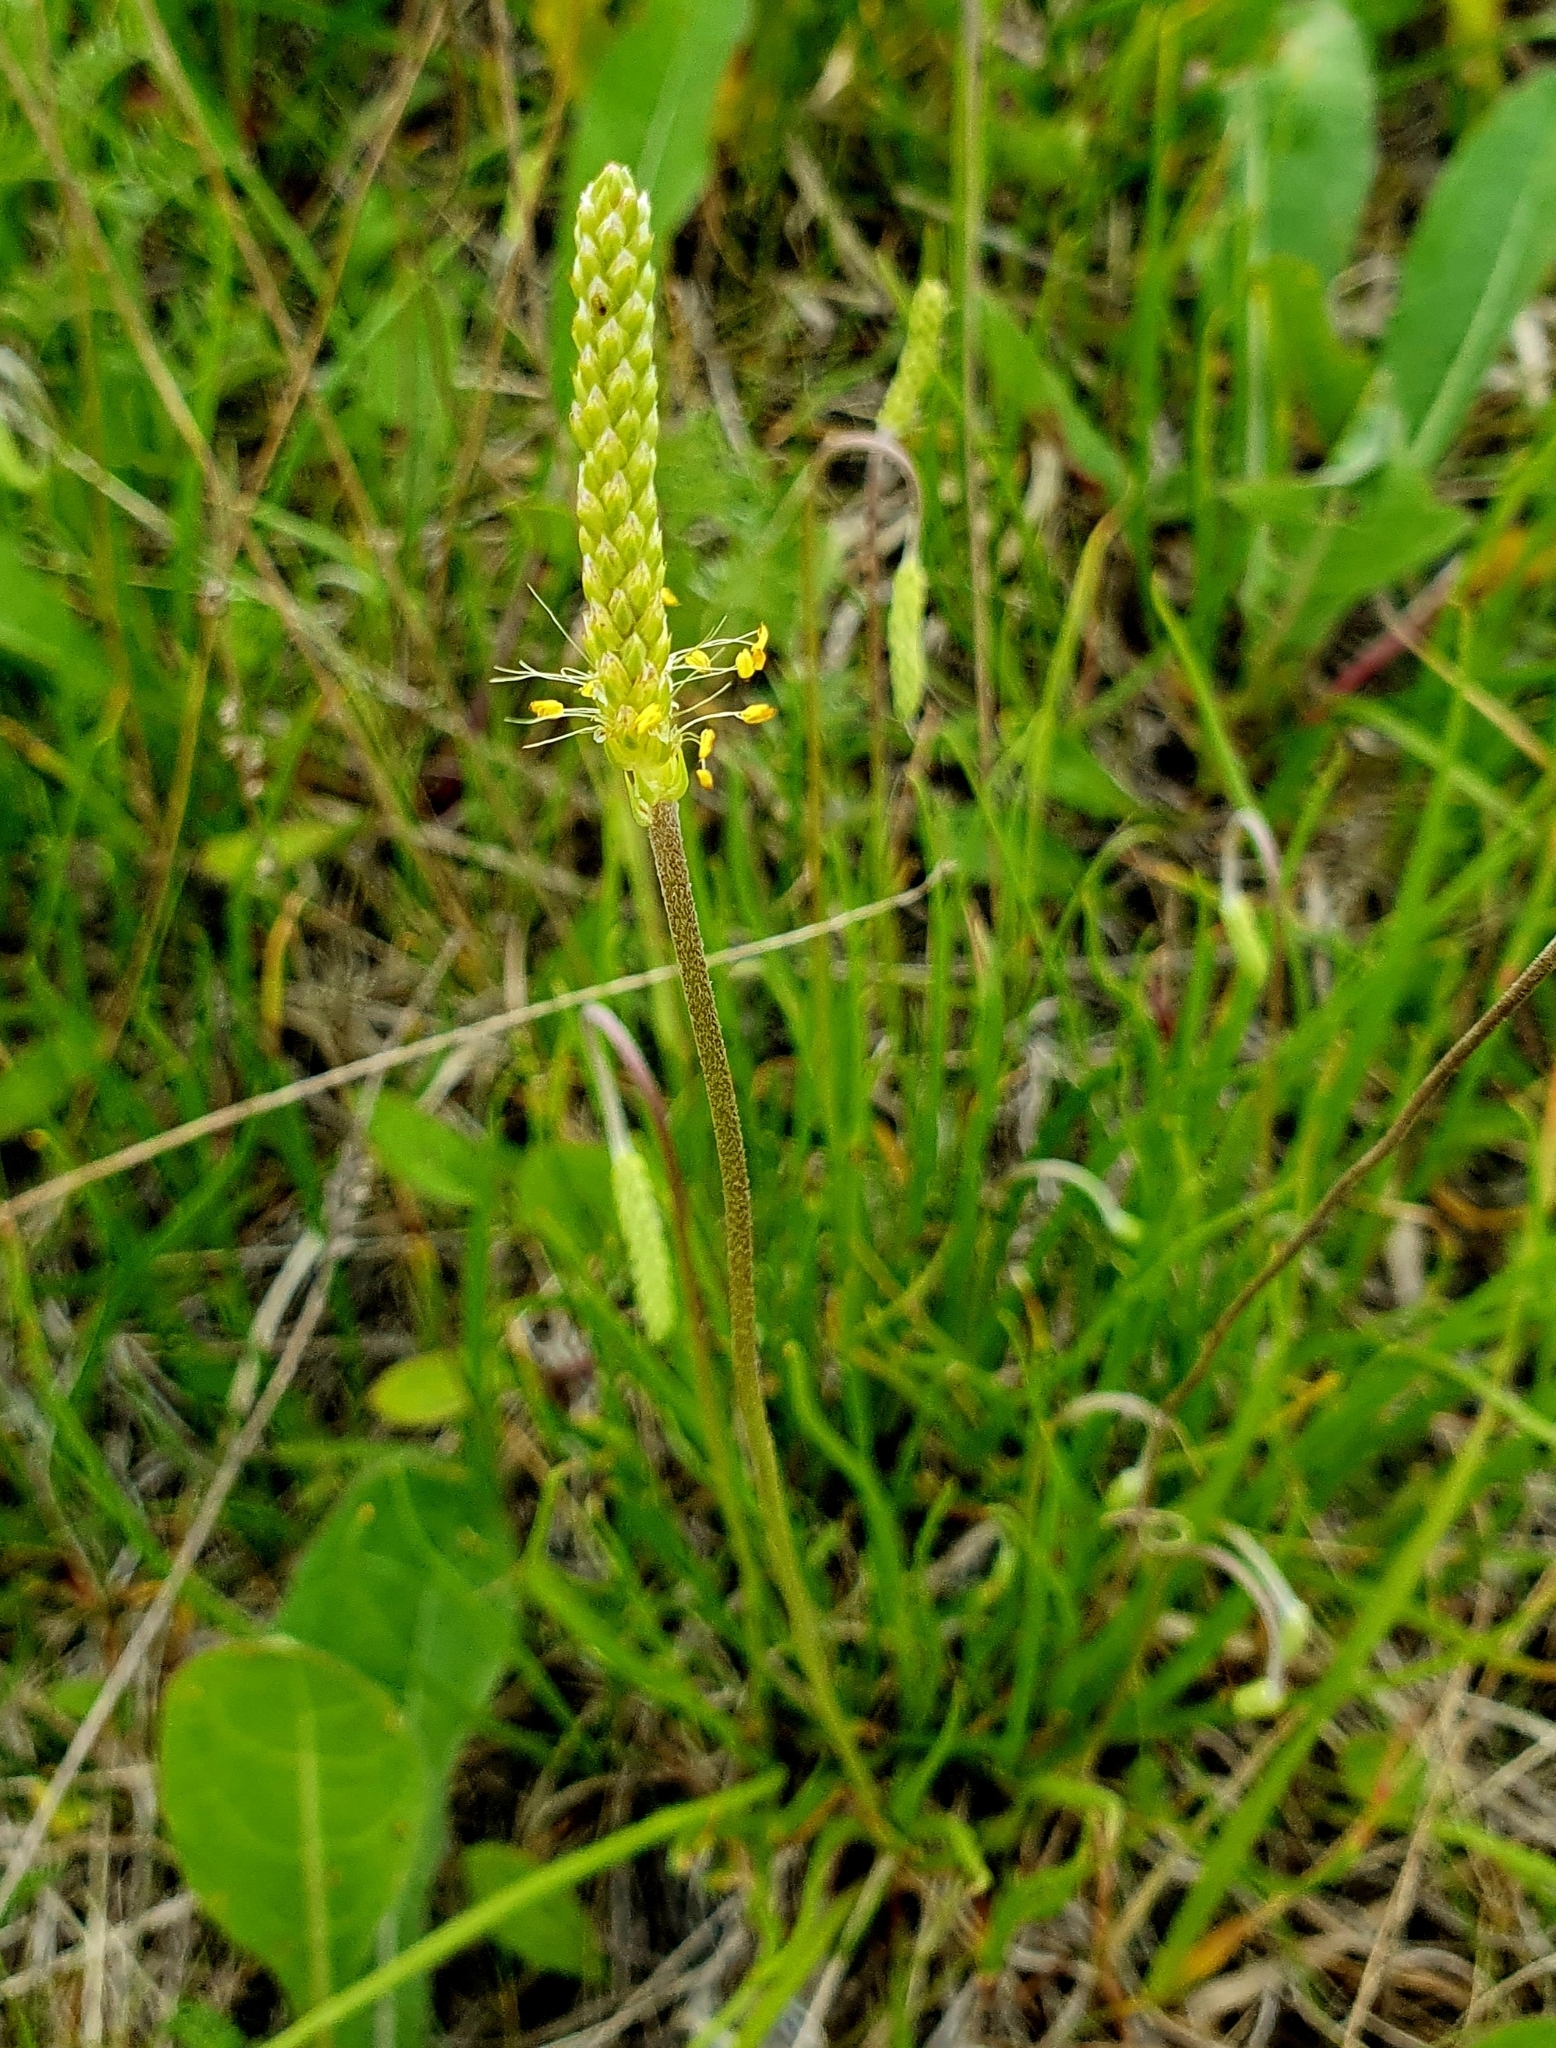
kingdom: Plantae
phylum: Tracheophyta
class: Magnoliopsida
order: Lamiales
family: Plantaginaceae
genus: Plantago
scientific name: Plantago salsa
